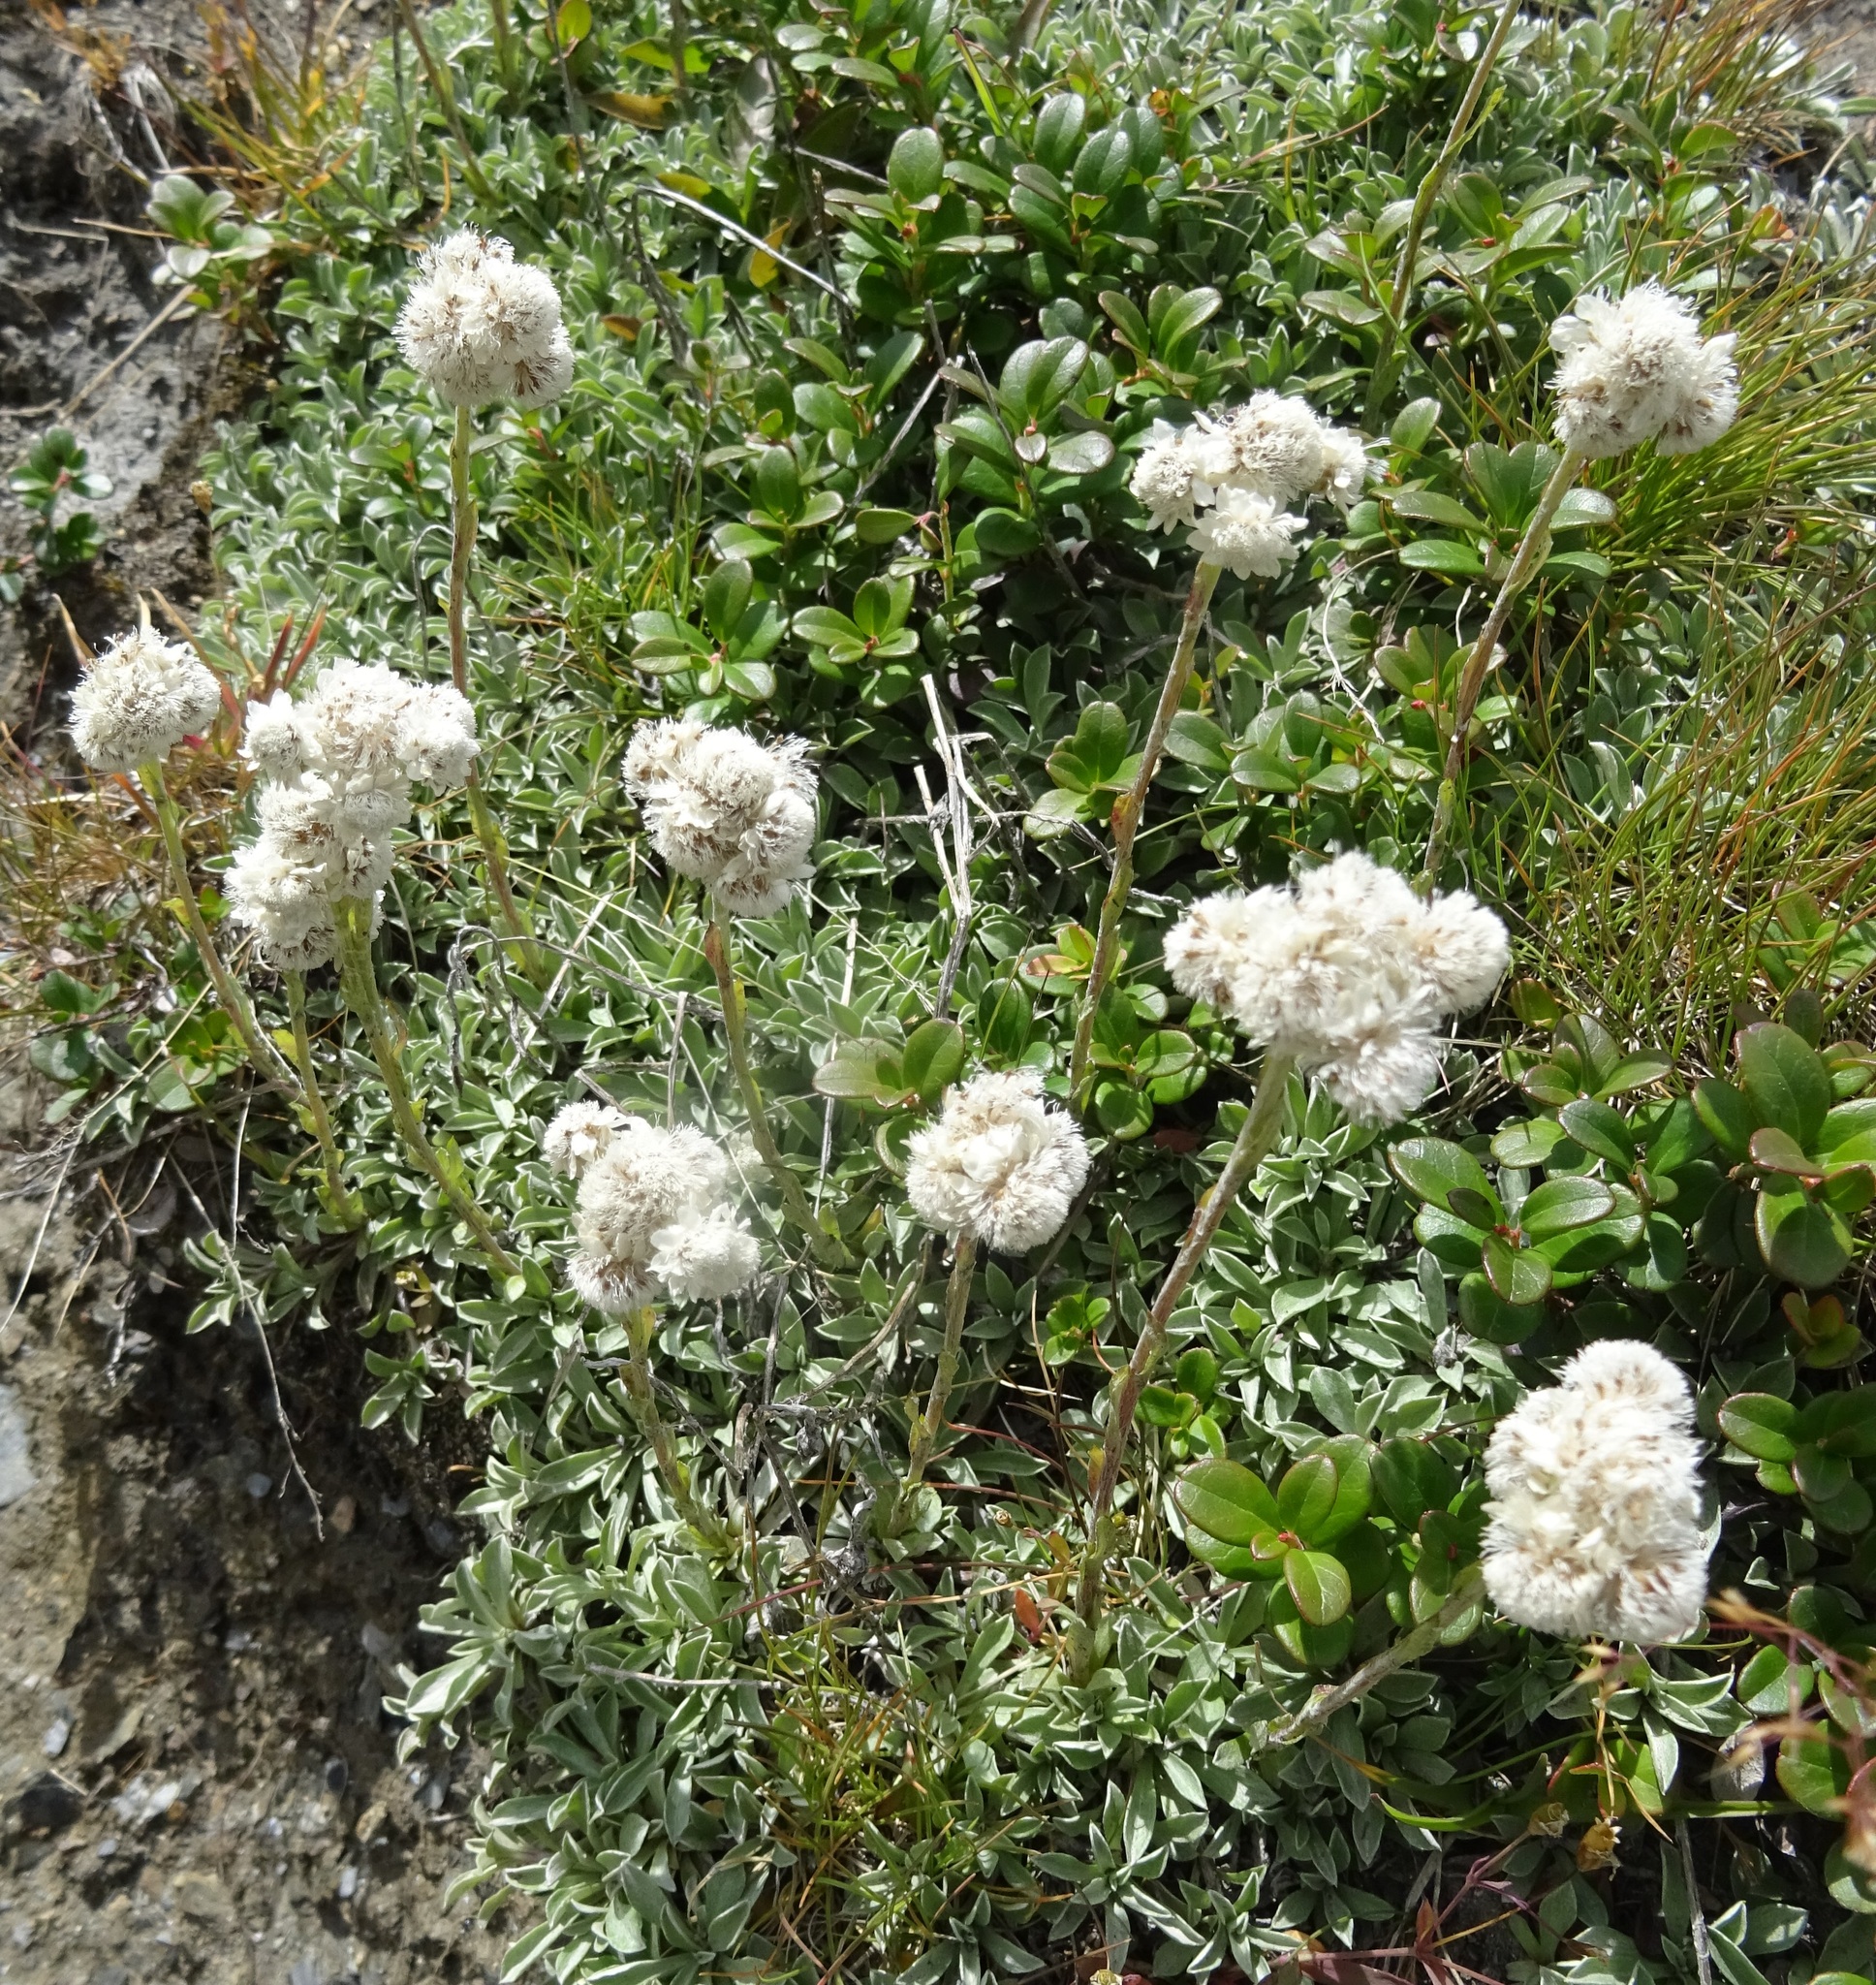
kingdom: Plantae
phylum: Tracheophyta
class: Magnoliopsida
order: Asterales
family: Asteraceae
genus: Antennaria
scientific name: Antennaria dioica
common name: Mountain everlasting
